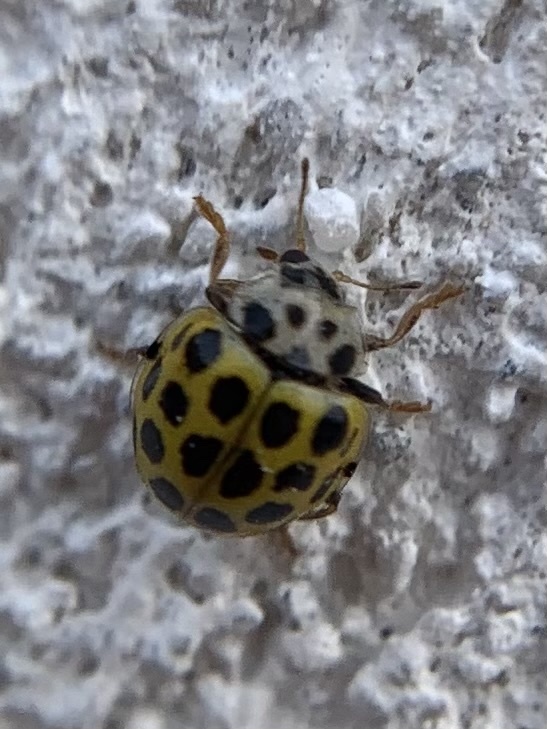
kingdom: Animalia
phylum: Arthropoda
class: Insecta
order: Coleoptera
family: Coccinellidae
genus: Psyllobora
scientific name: Psyllobora vigintiduopunctata
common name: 22-spot ladybird
